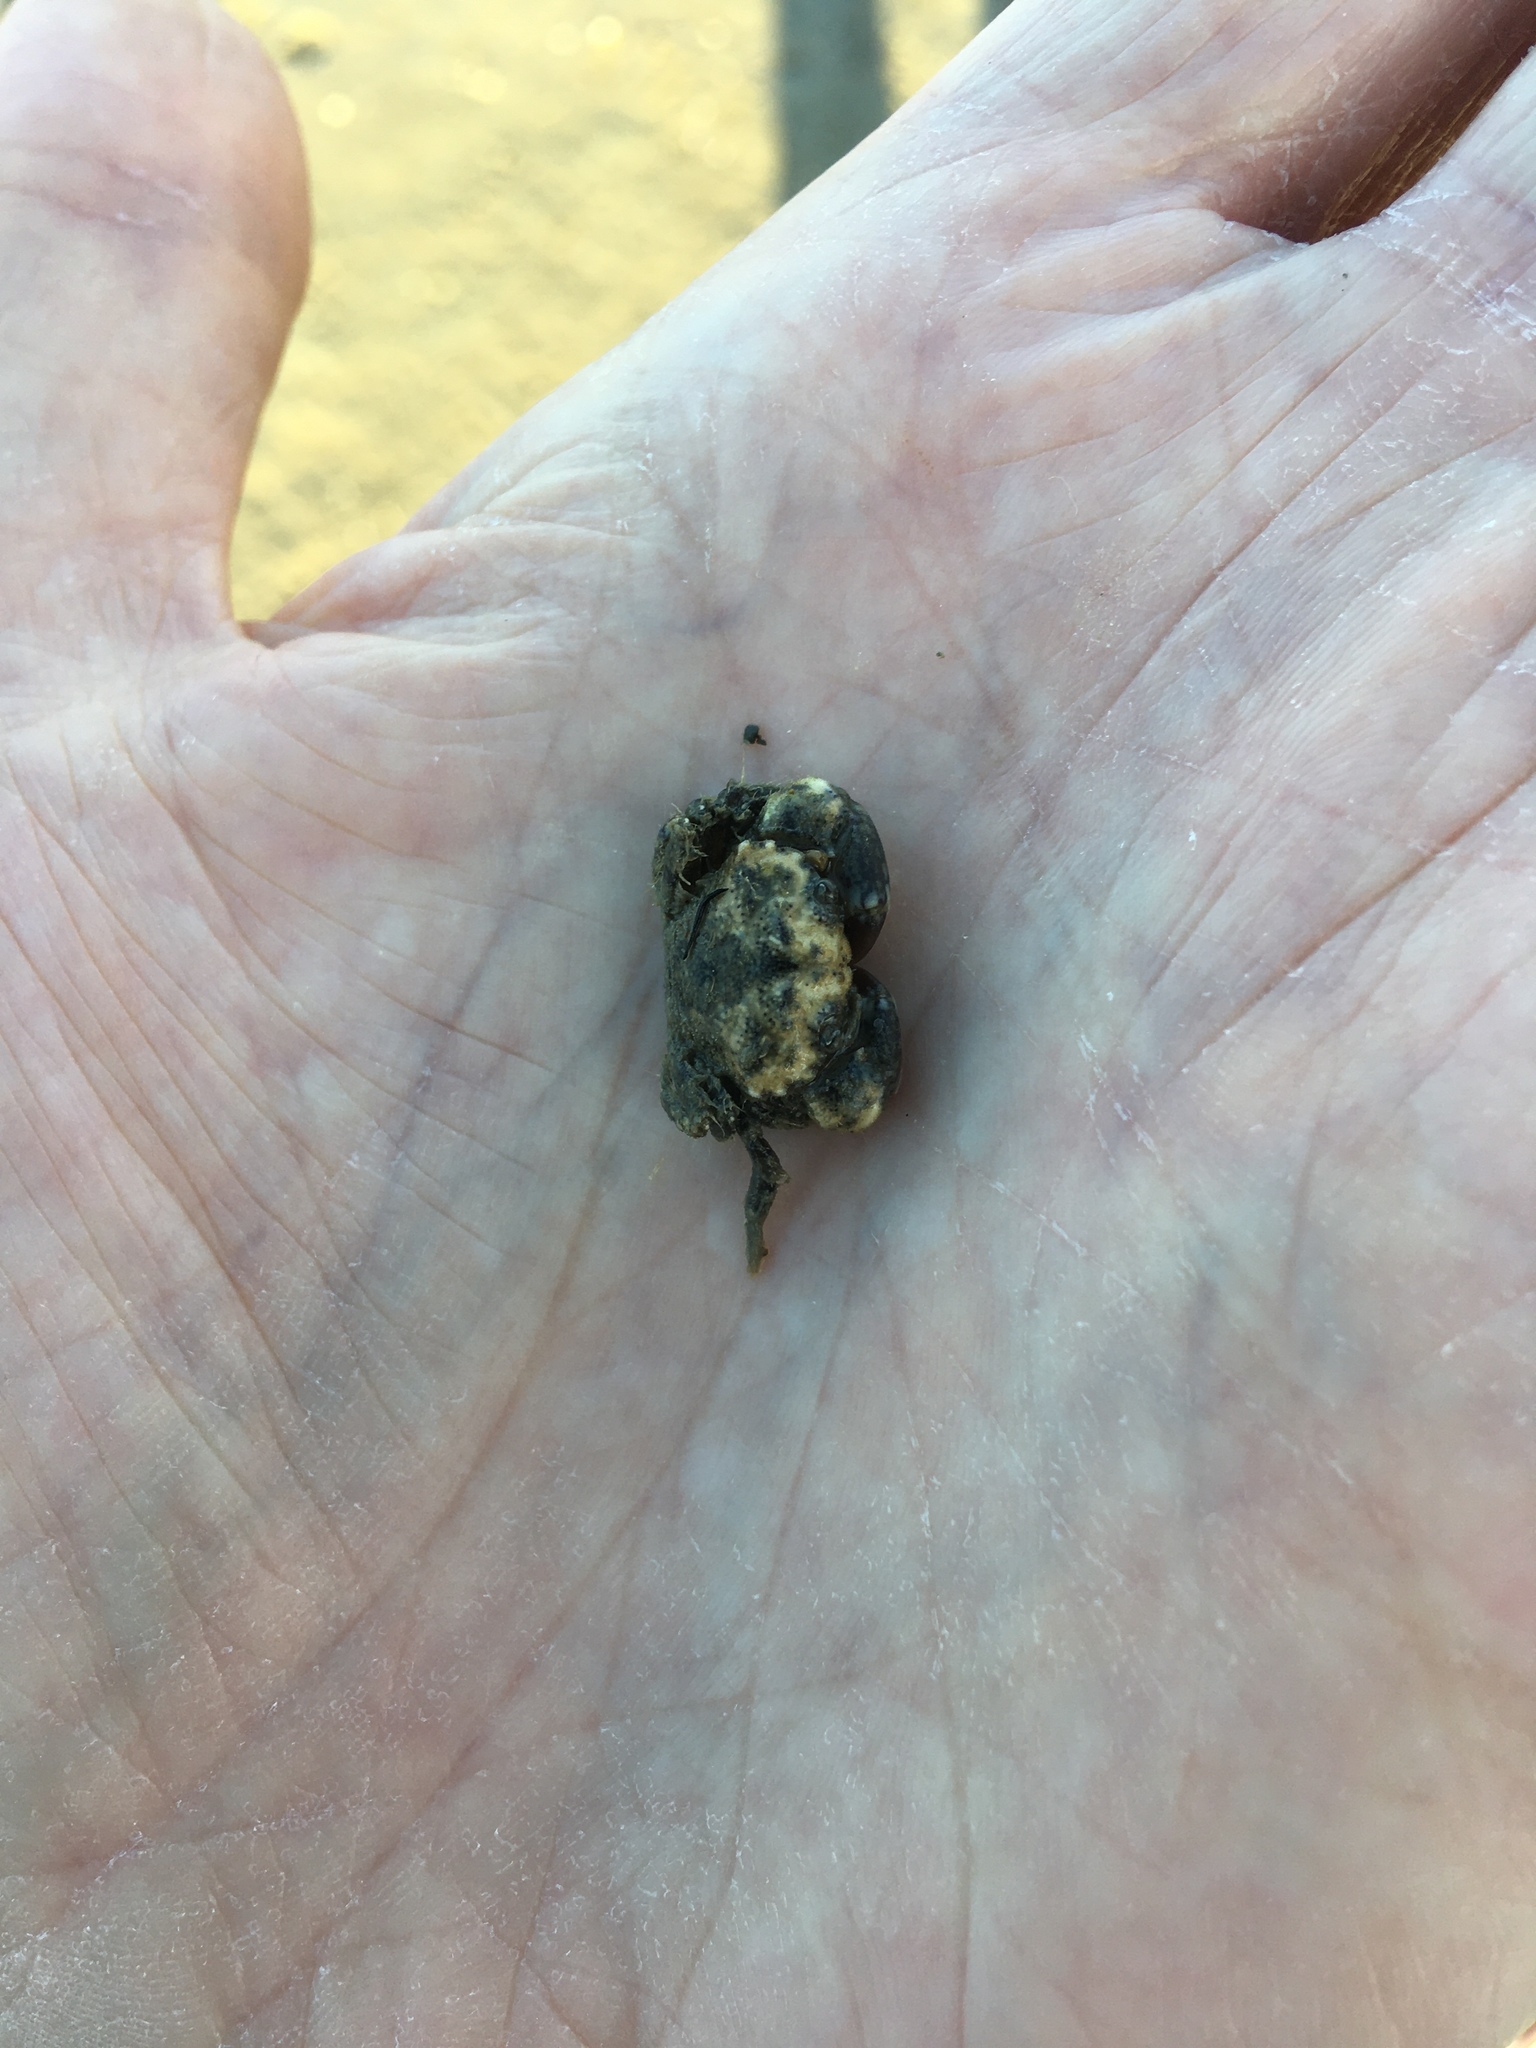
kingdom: Animalia
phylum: Arthropoda
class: Malacostraca
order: Decapoda
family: Pilumnidae
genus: Pilumnopeus
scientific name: Pilumnopeus serratifrons
